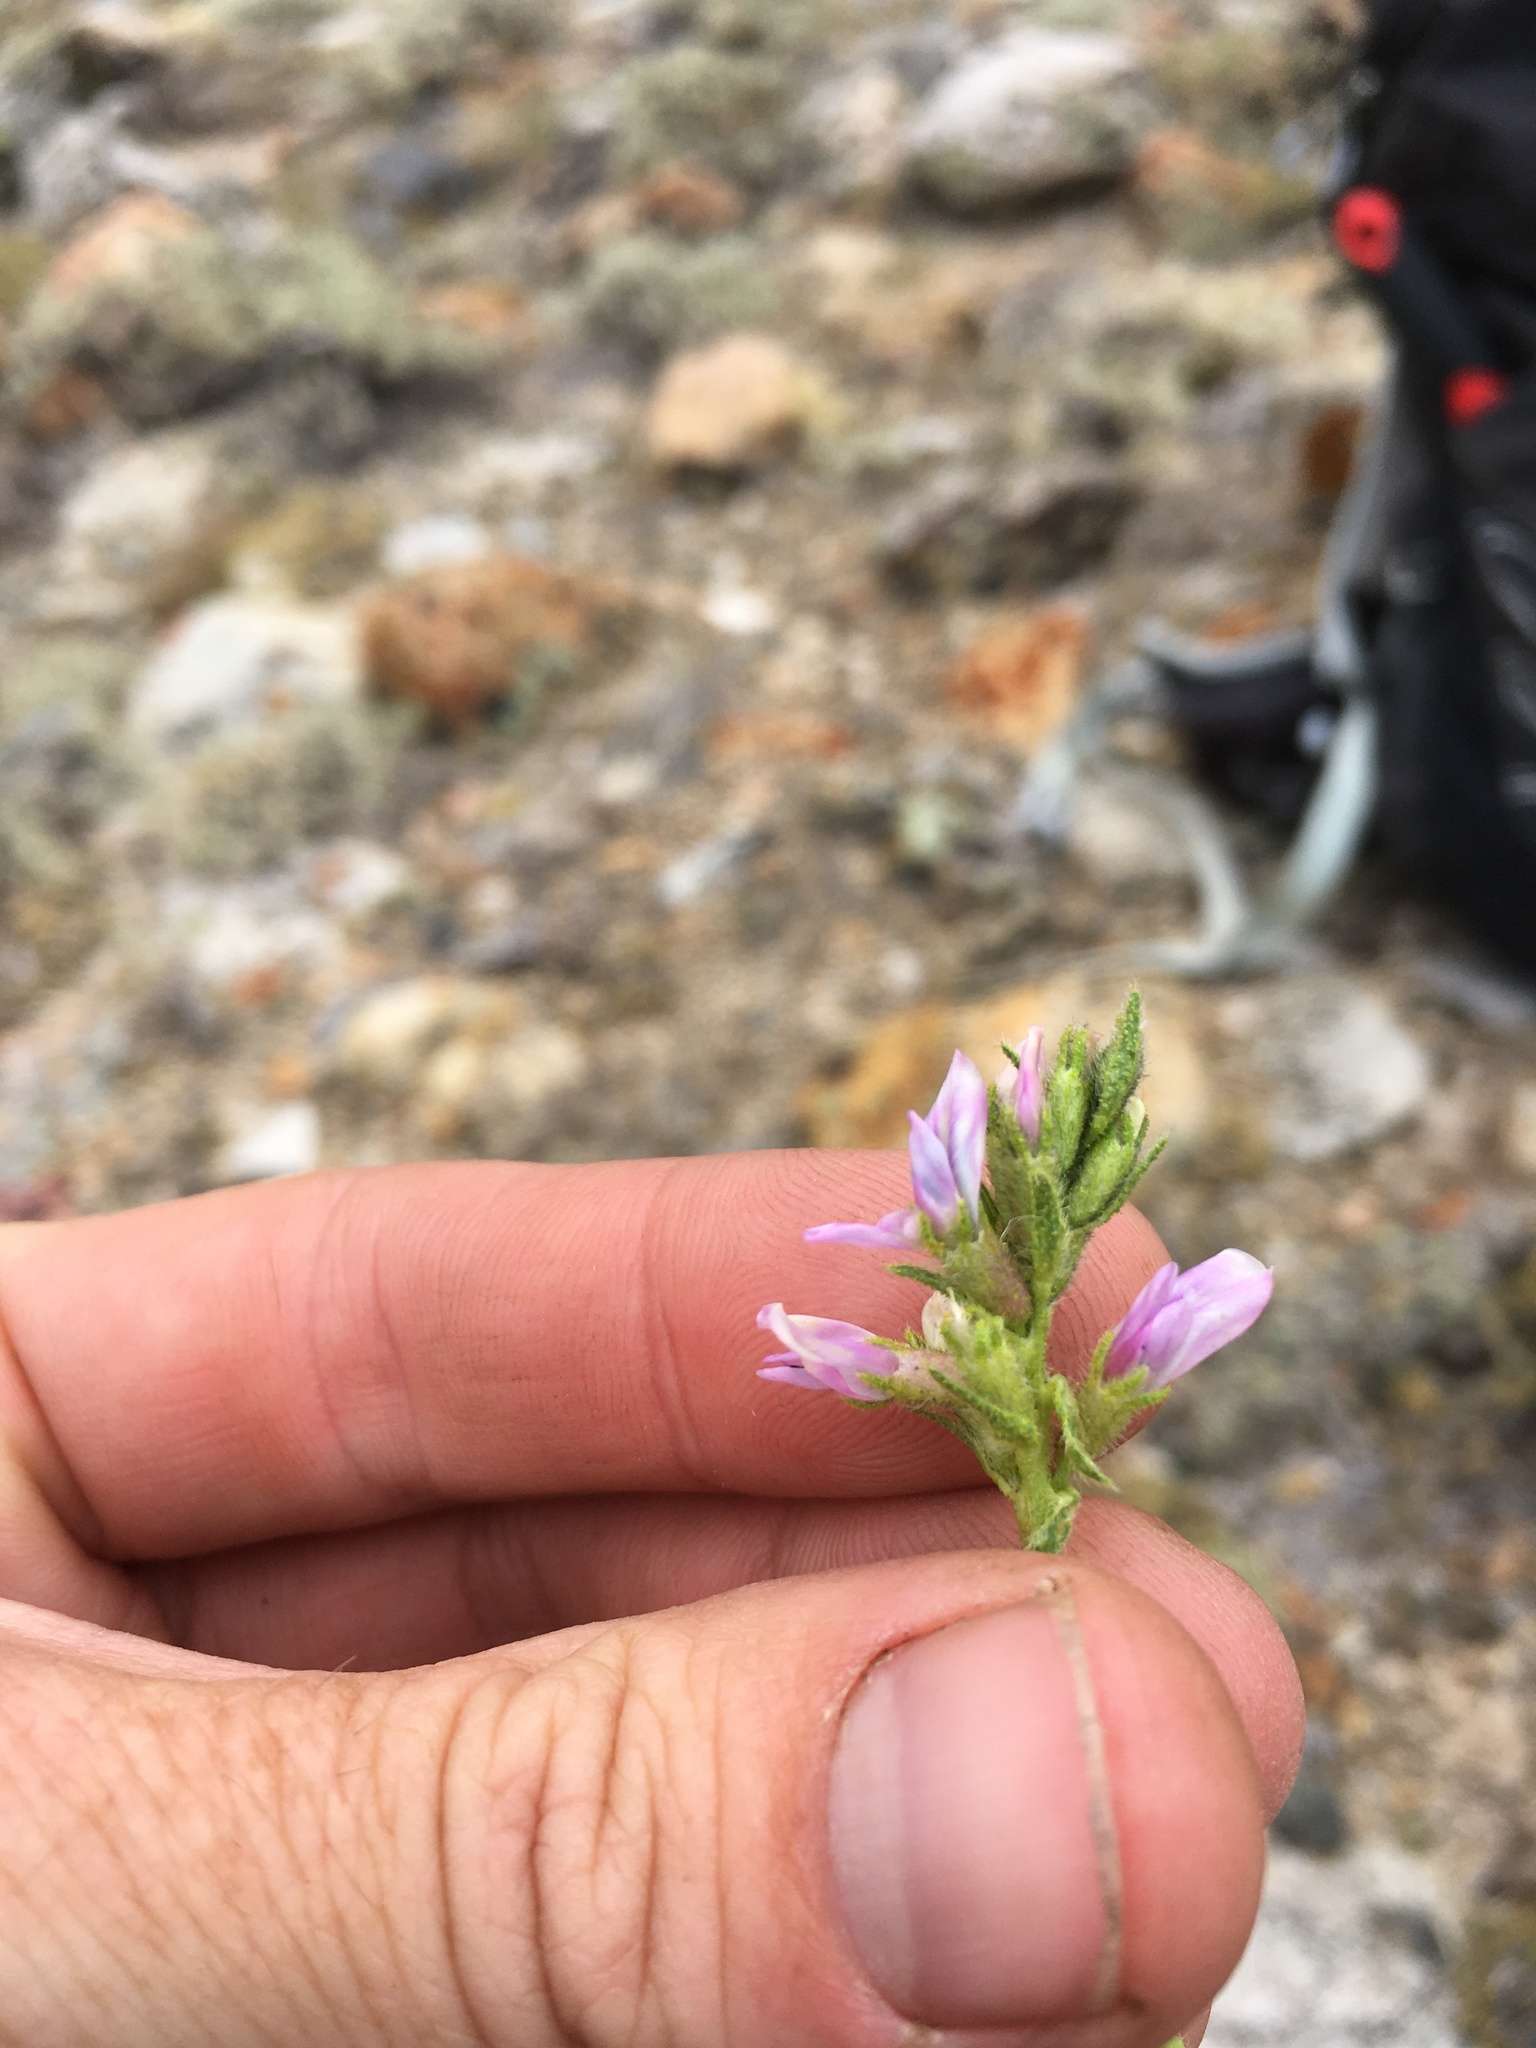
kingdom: Plantae
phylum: Tracheophyta
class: Magnoliopsida
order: Fabales
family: Fabaceae
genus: Oxytropis
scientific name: Oxytropis borealis
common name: Boreal locoweed
